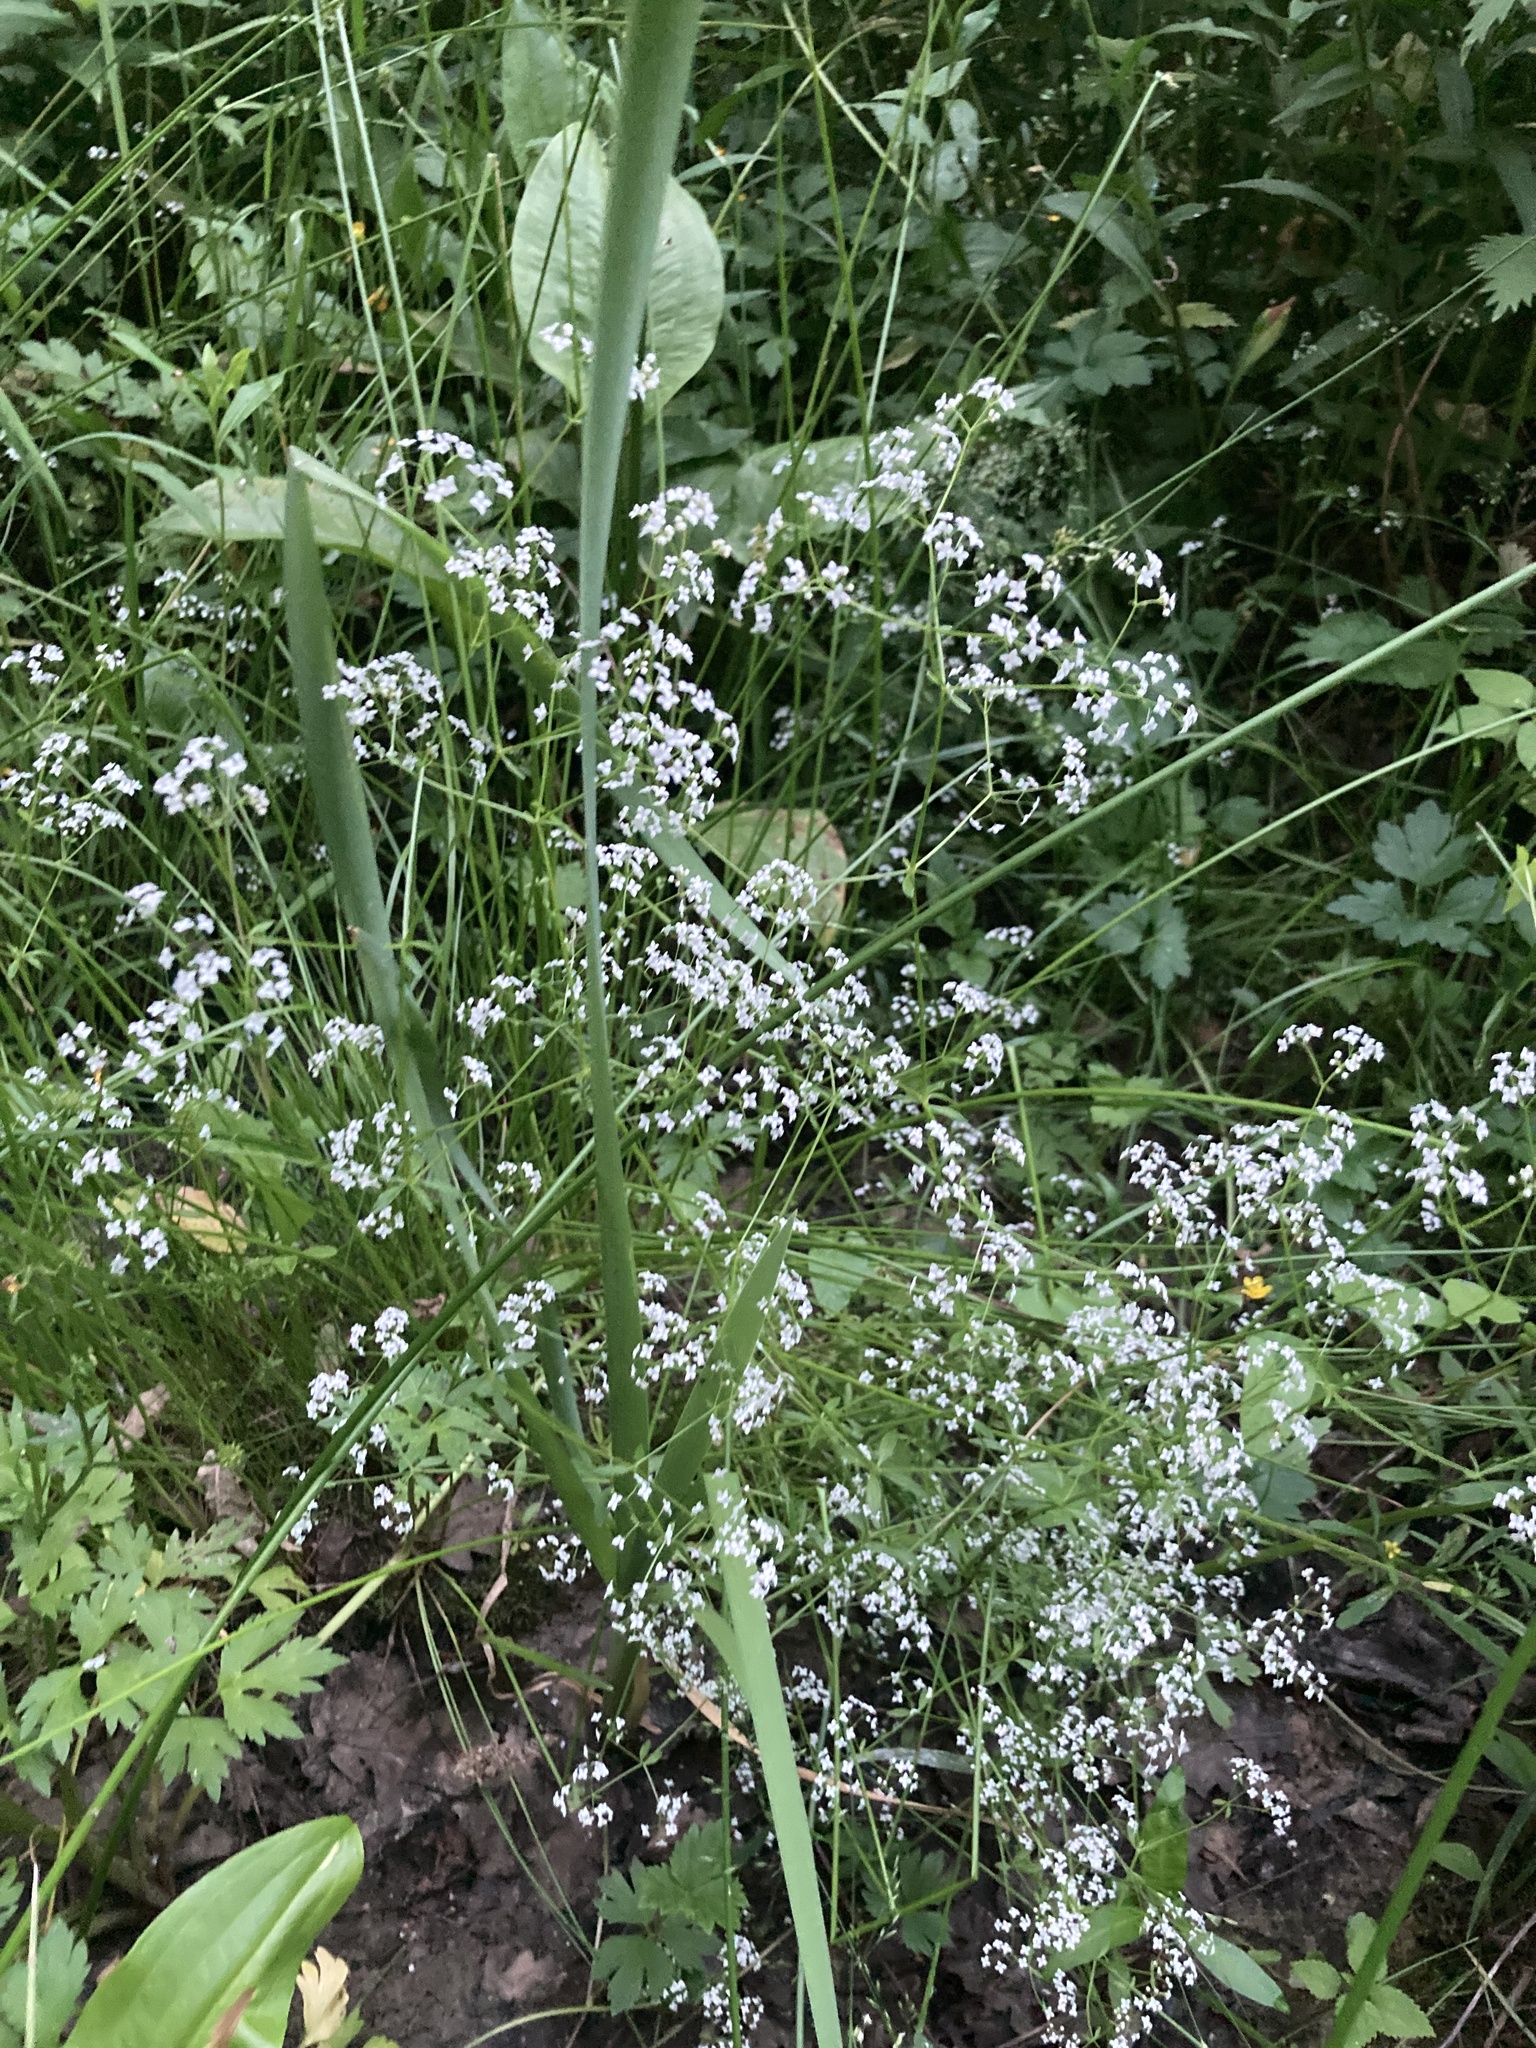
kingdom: Plantae
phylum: Tracheophyta
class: Magnoliopsida
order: Gentianales
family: Rubiaceae
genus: Galium
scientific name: Galium palustre
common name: Common marsh-bedstraw
